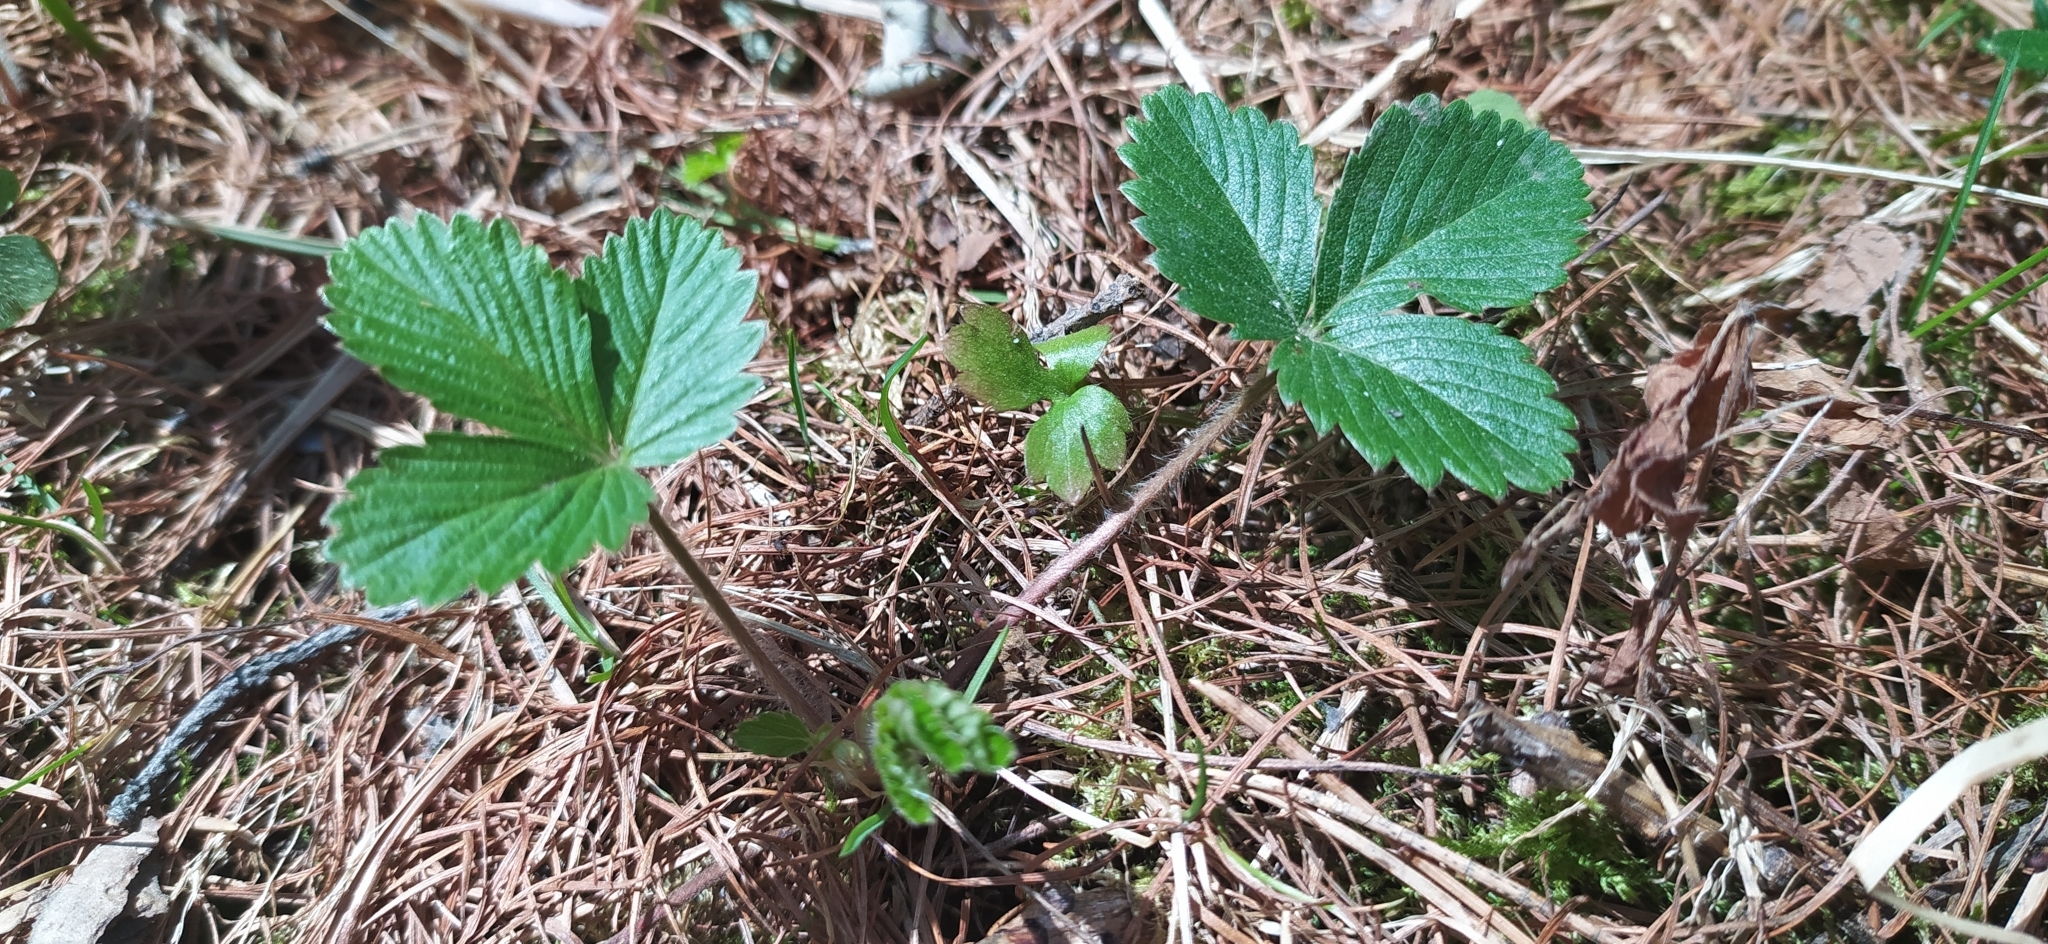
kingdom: Plantae
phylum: Tracheophyta
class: Magnoliopsida
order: Rosales
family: Rosaceae
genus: Fragaria
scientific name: Fragaria vesca
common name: Wild strawberry
